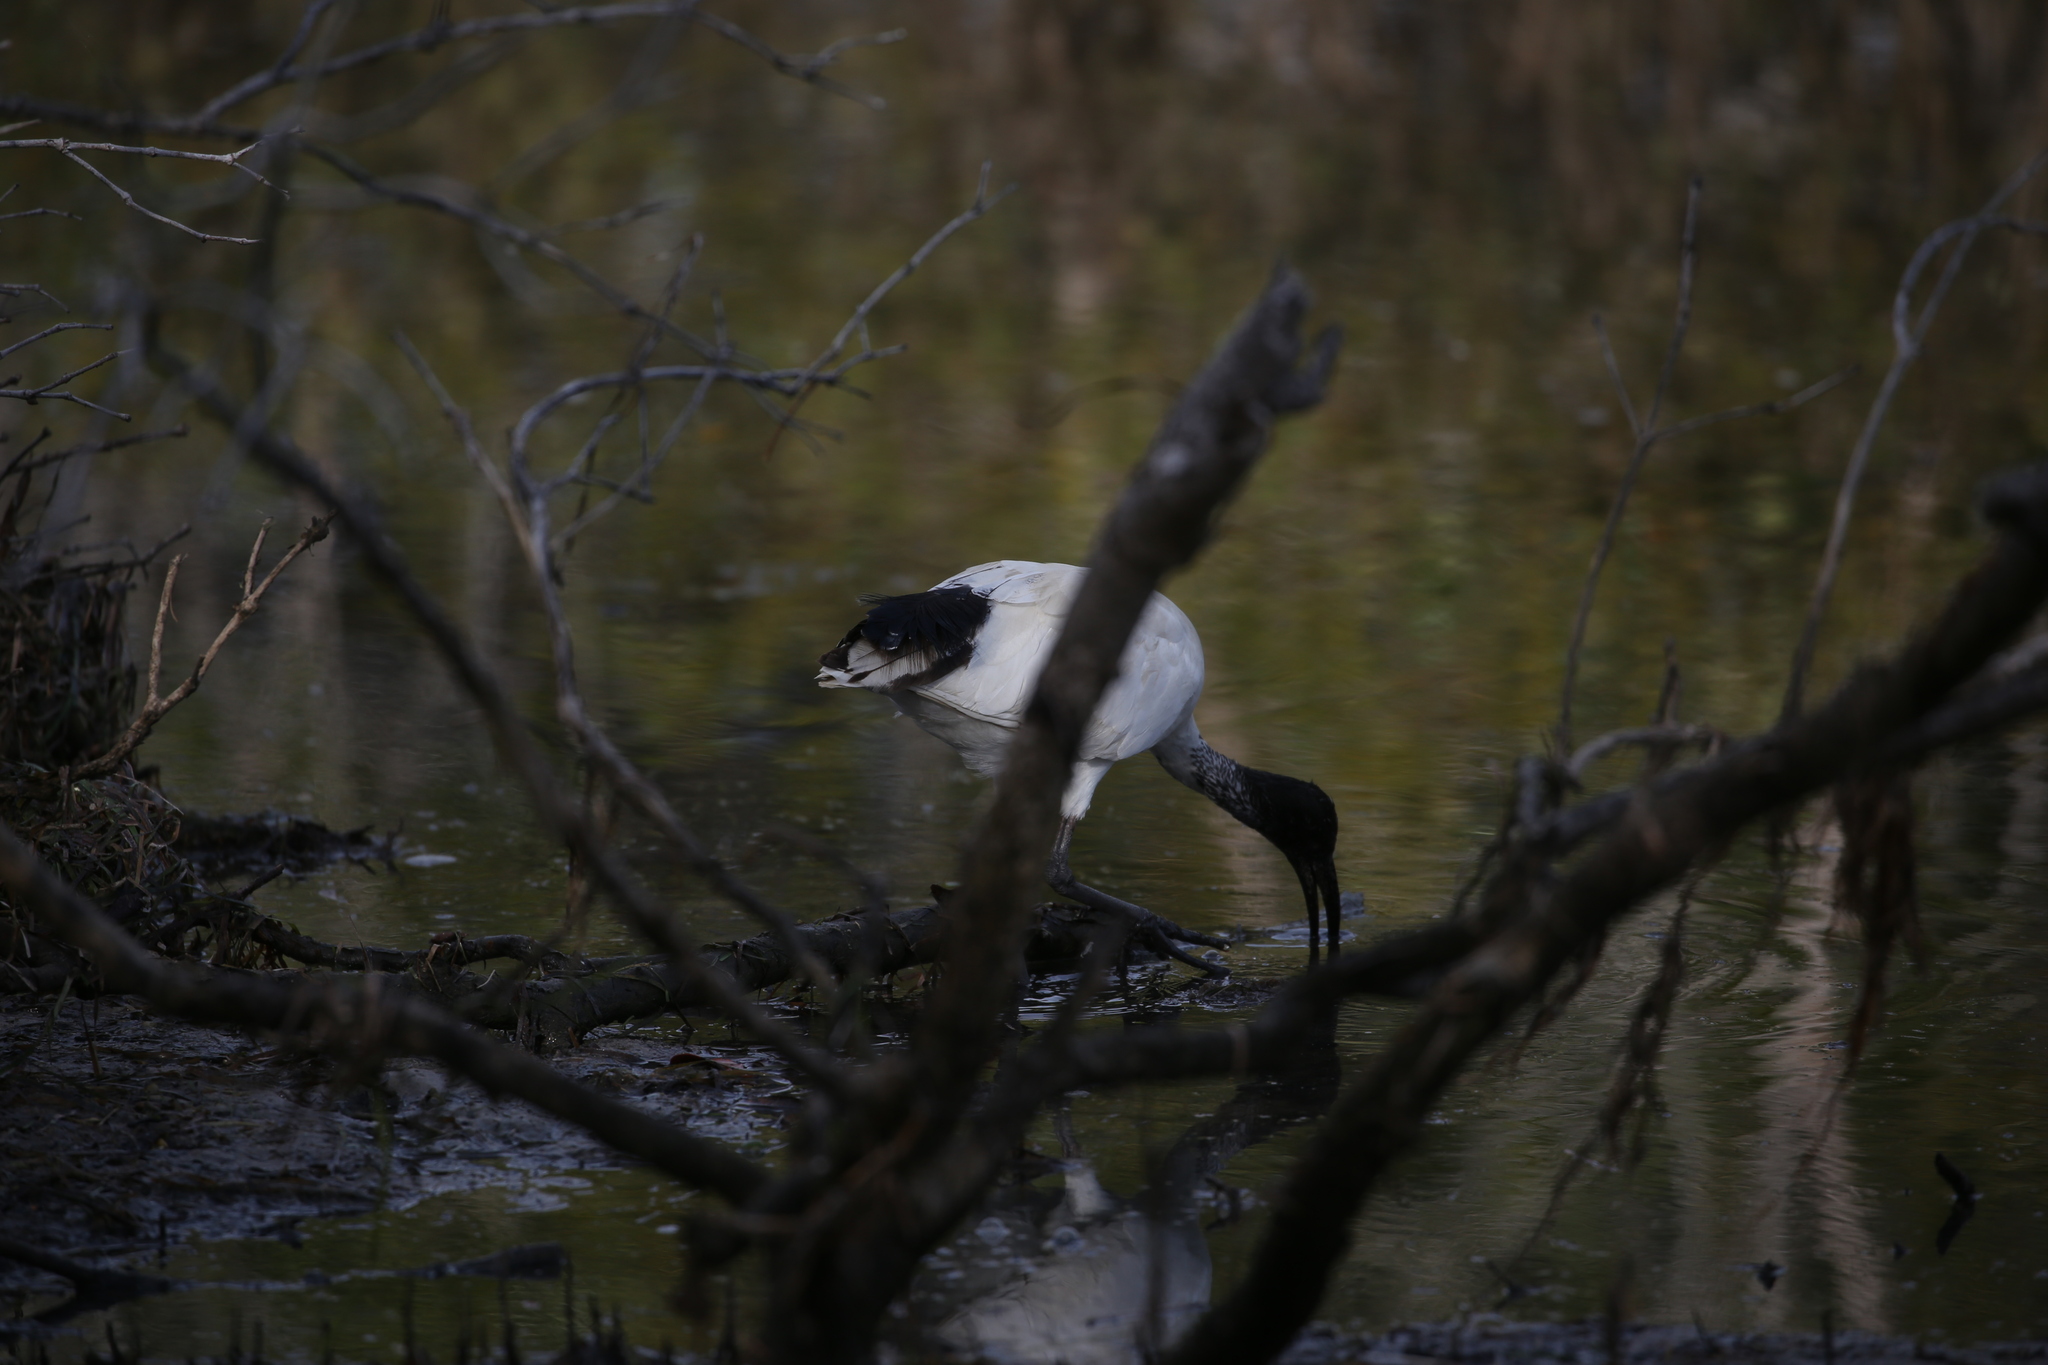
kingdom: Animalia
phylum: Chordata
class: Aves
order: Pelecaniformes
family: Threskiornithidae
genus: Threskiornis
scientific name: Threskiornis molucca
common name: Australian white ibis
